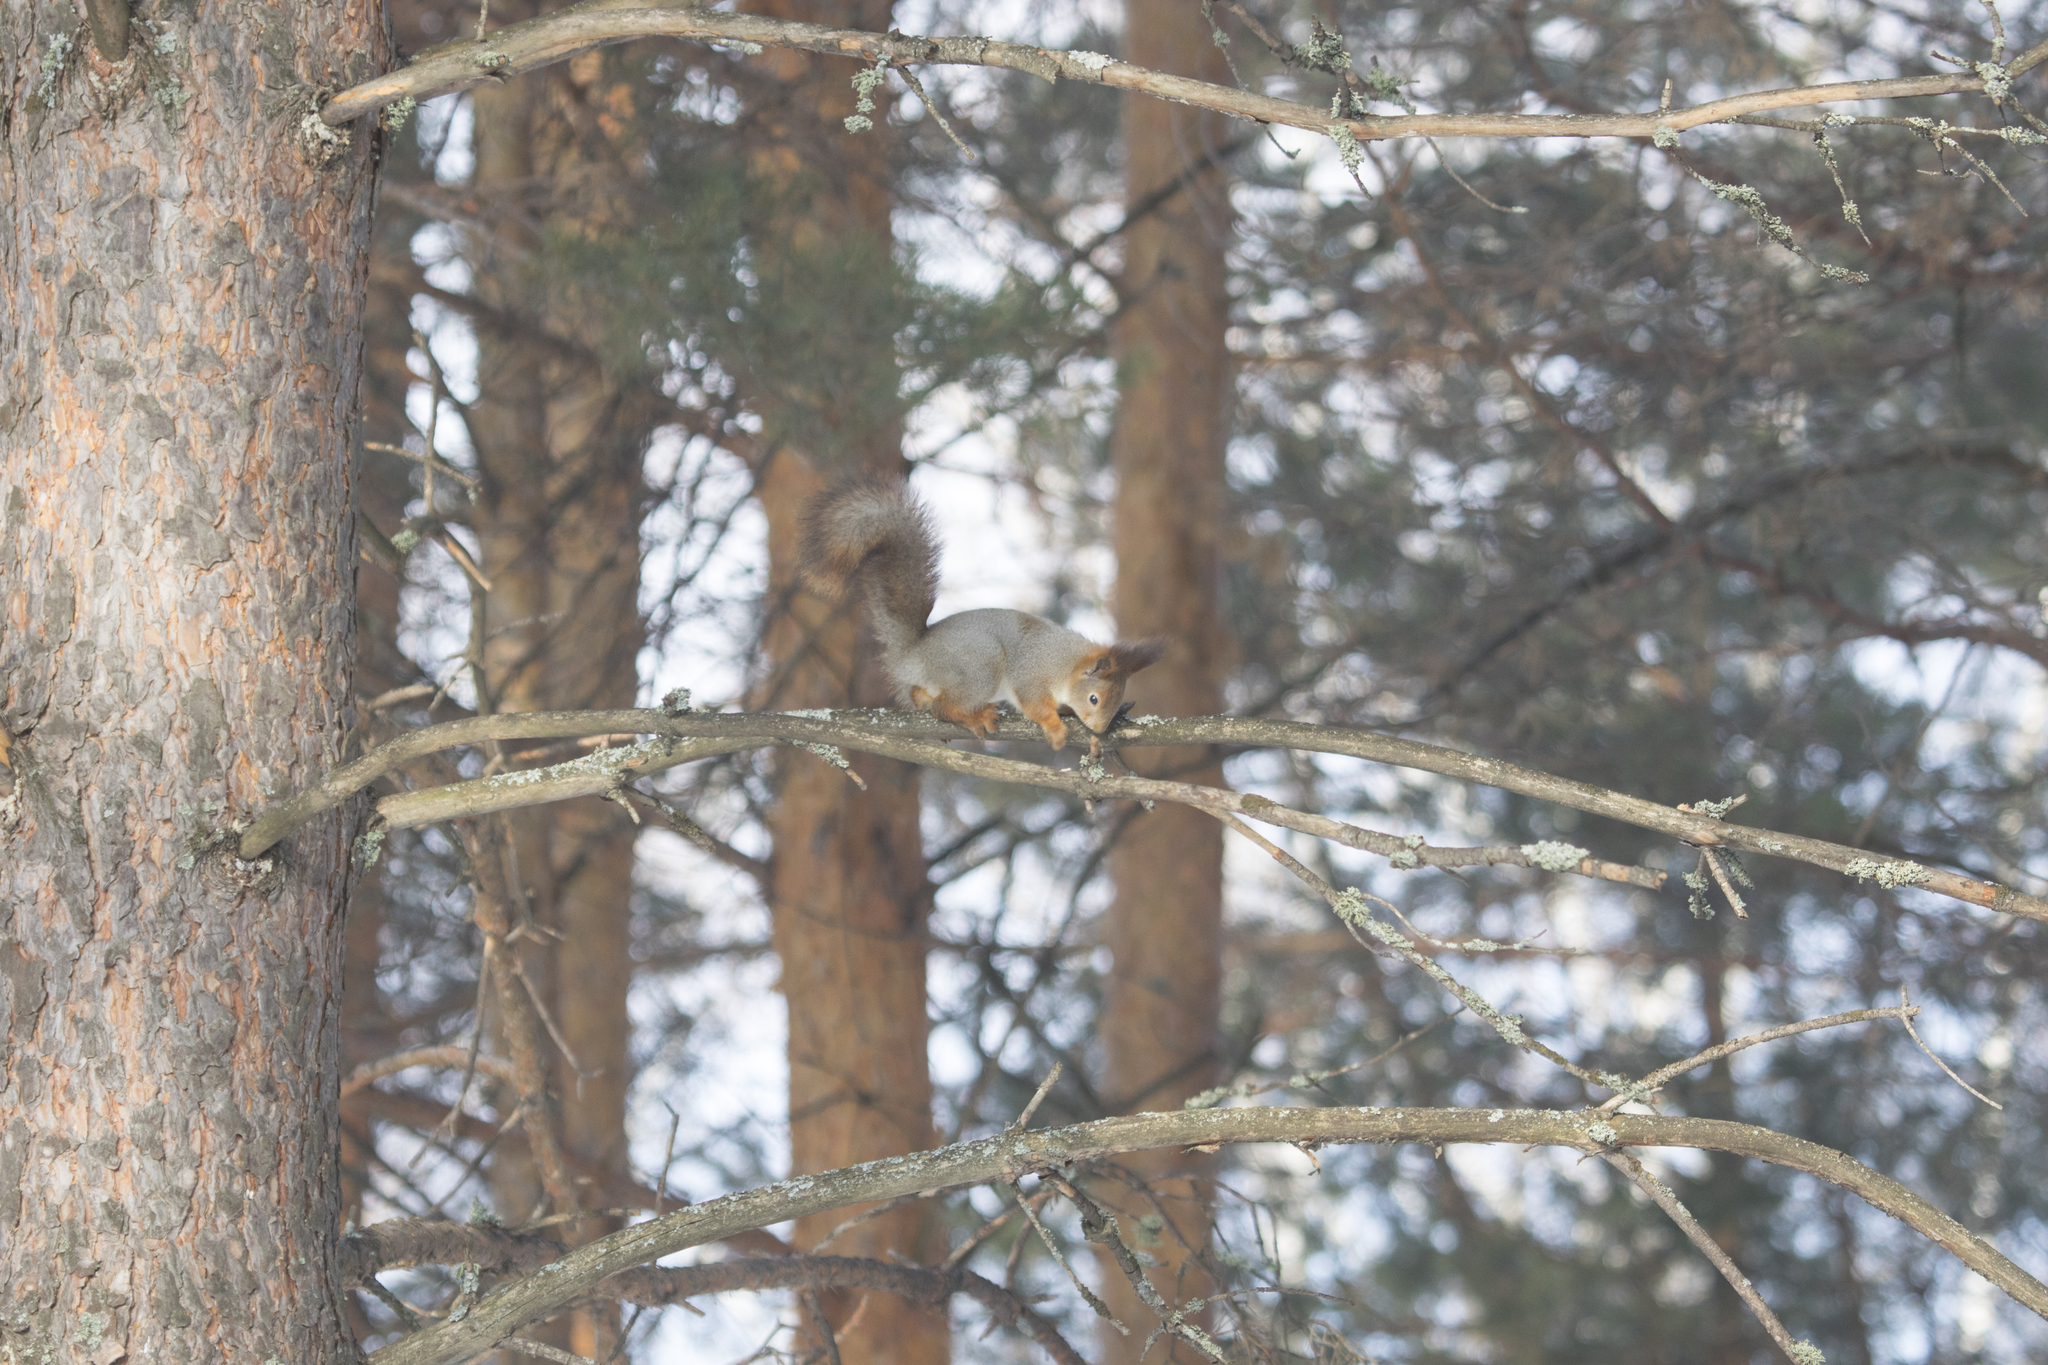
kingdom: Animalia
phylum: Chordata
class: Mammalia
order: Rodentia
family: Sciuridae
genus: Sciurus
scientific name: Sciurus vulgaris
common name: Eurasian red squirrel
